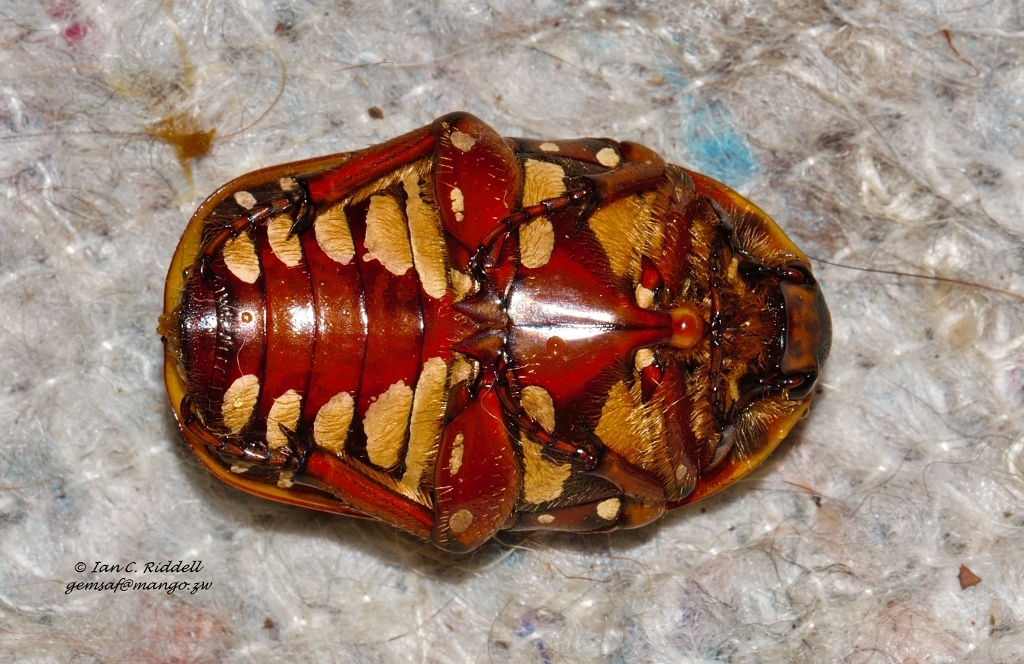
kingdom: Animalia
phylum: Arthropoda
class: Insecta
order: Coleoptera
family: Scarabaeidae
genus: Marmylida
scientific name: Marmylida impressa
